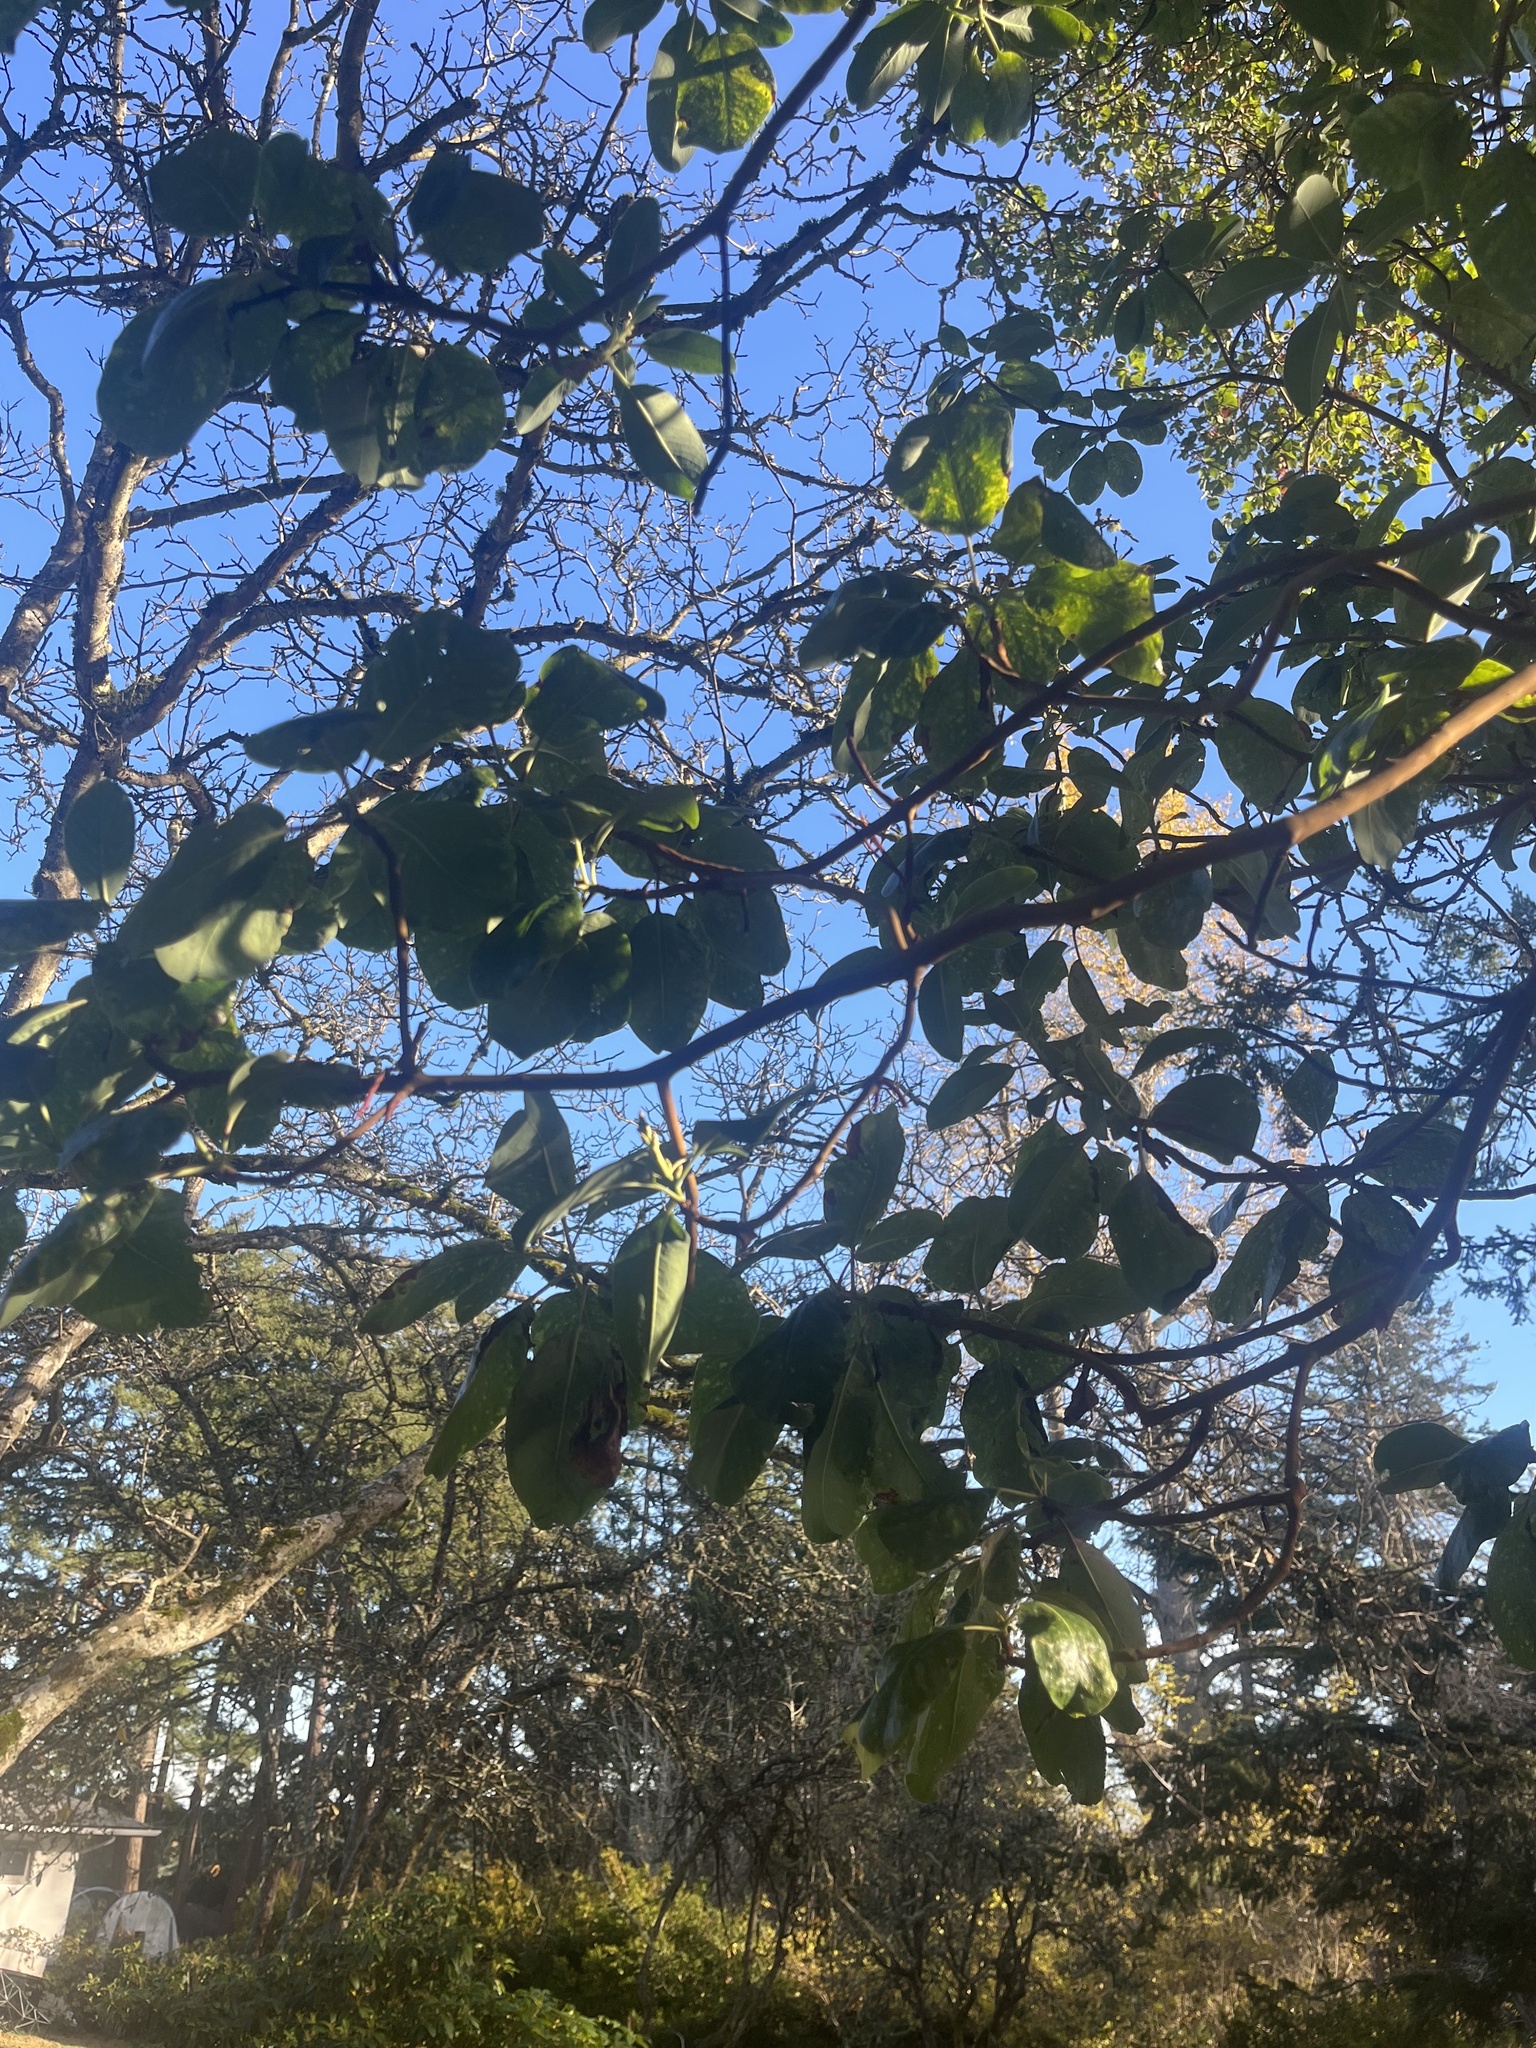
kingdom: Plantae
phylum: Tracheophyta
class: Magnoliopsida
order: Ericales
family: Ericaceae
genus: Arbutus
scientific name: Arbutus menziesii
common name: Pacific madrone
